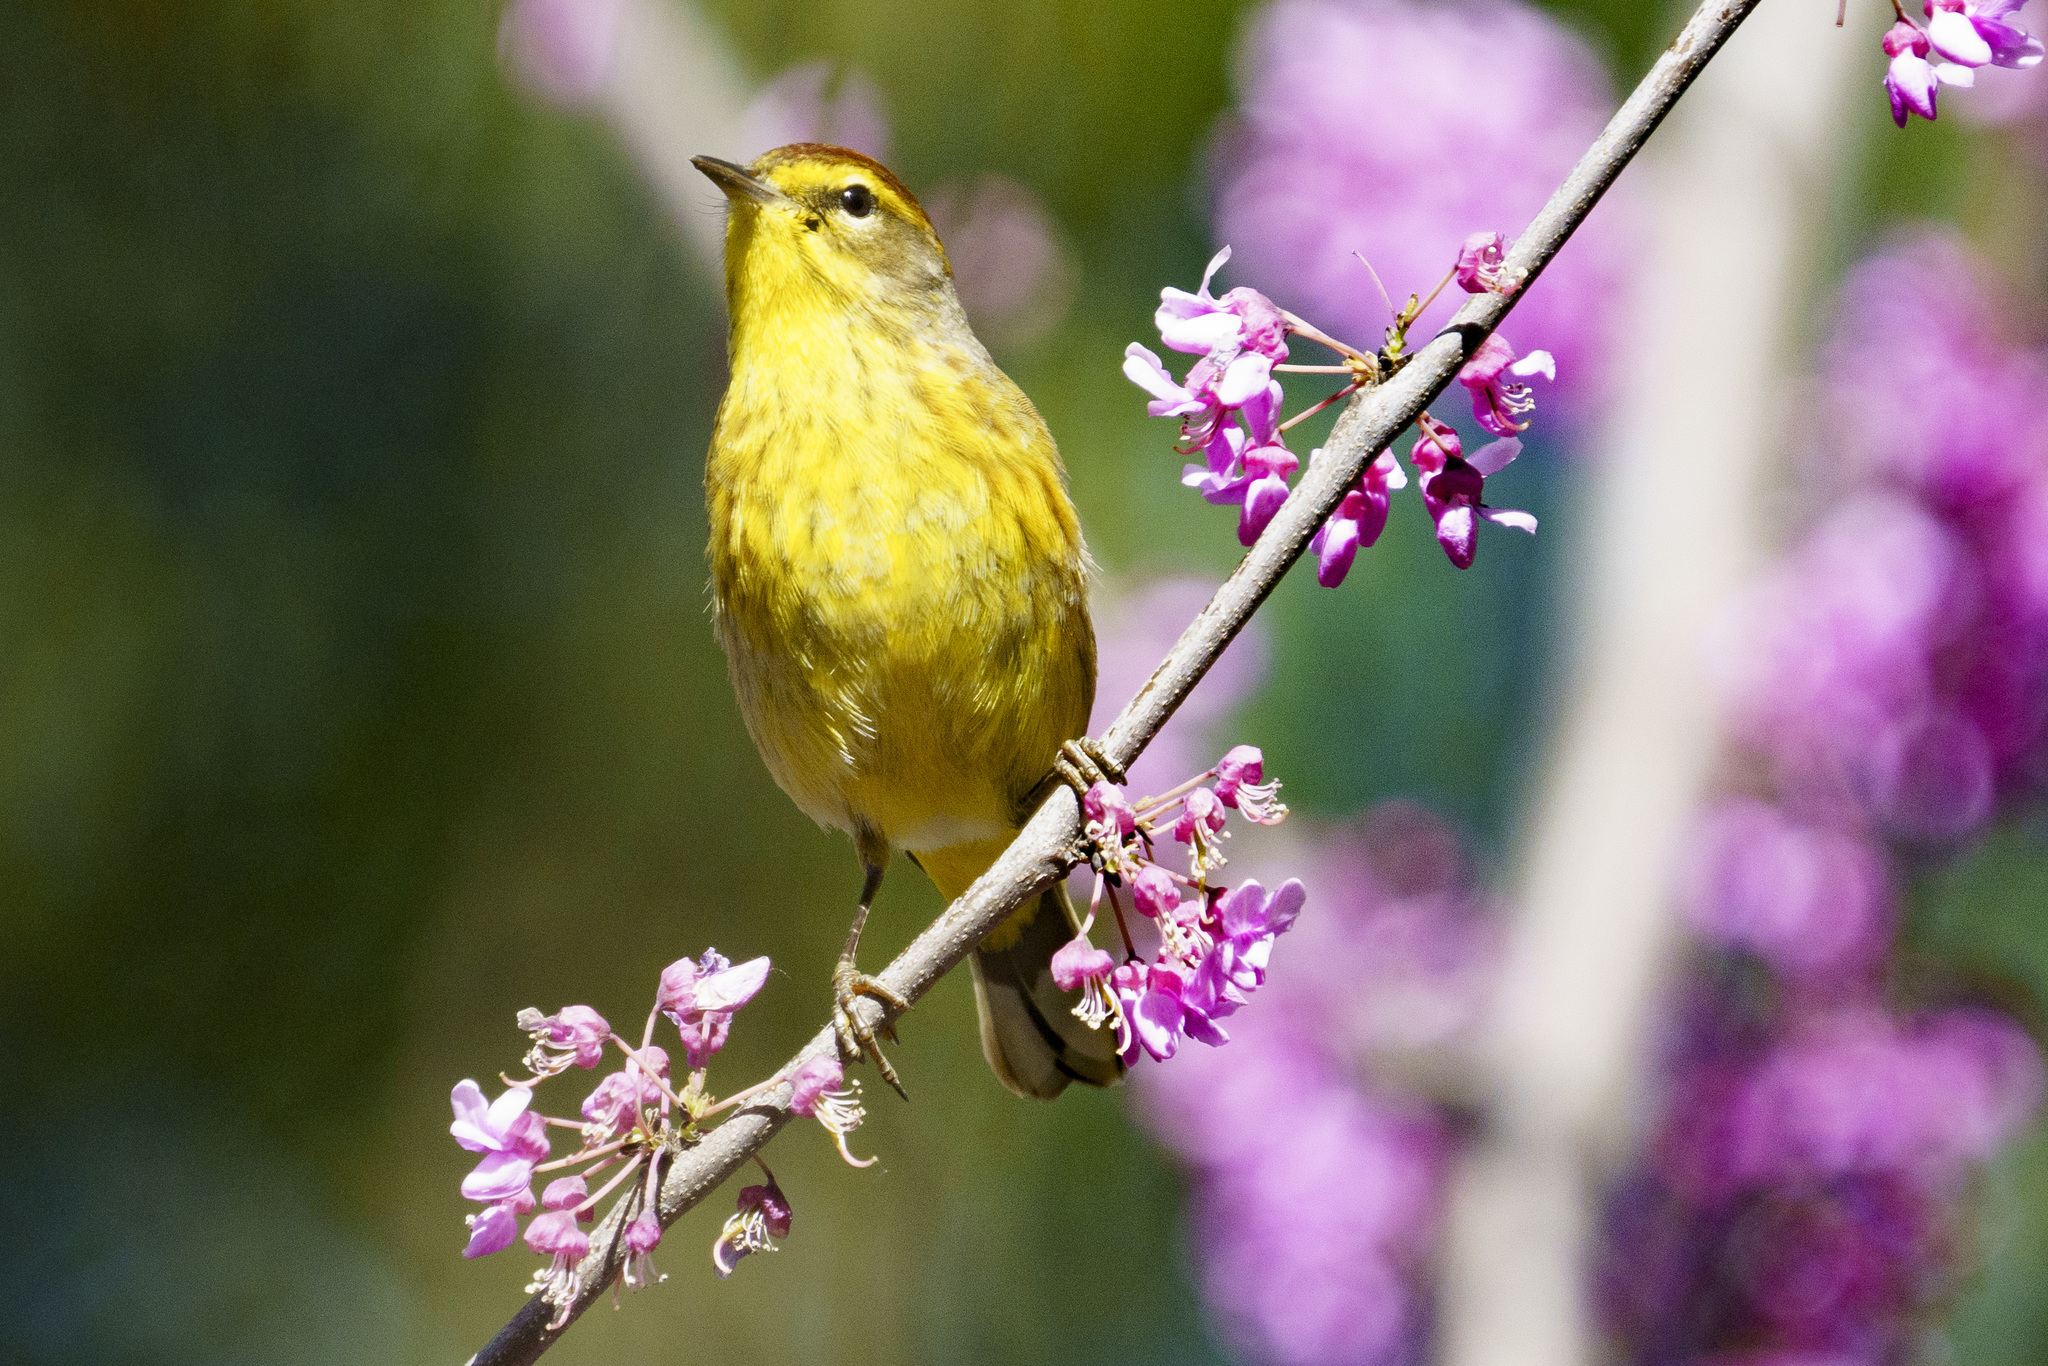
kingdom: Animalia
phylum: Chordata
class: Aves
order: Passeriformes
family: Parulidae
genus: Setophaga
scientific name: Setophaga palmarum
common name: Palm warbler
